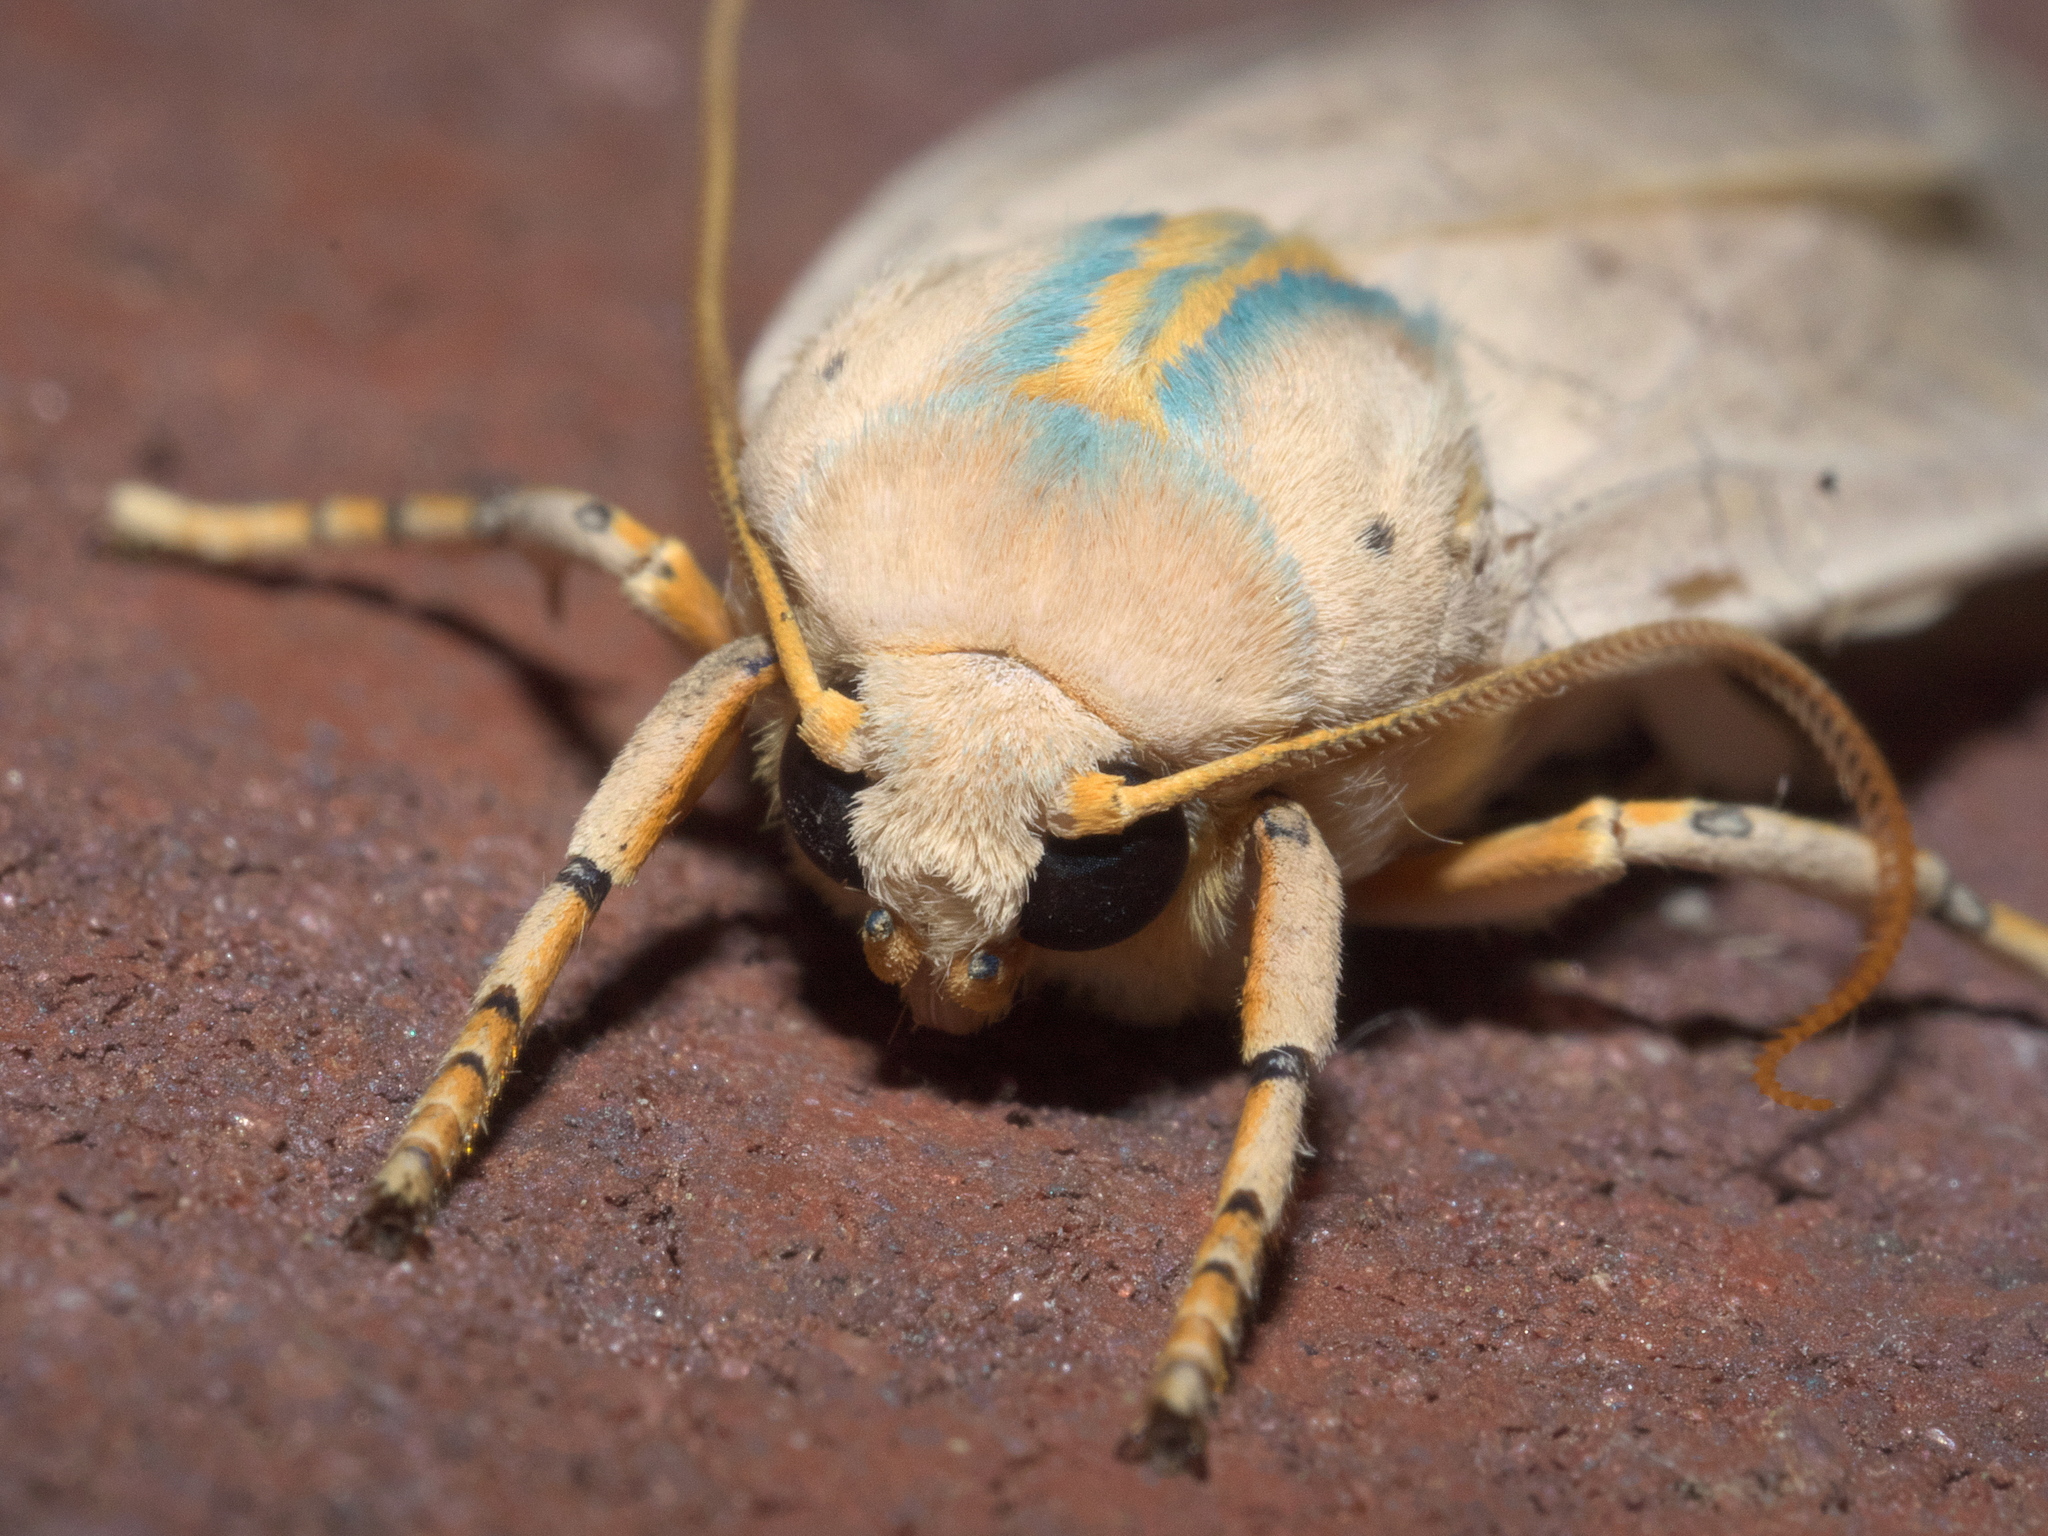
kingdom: Animalia
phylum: Arthropoda
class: Insecta
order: Lepidoptera
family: Erebidae
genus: Halysidota
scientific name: Halysidota
